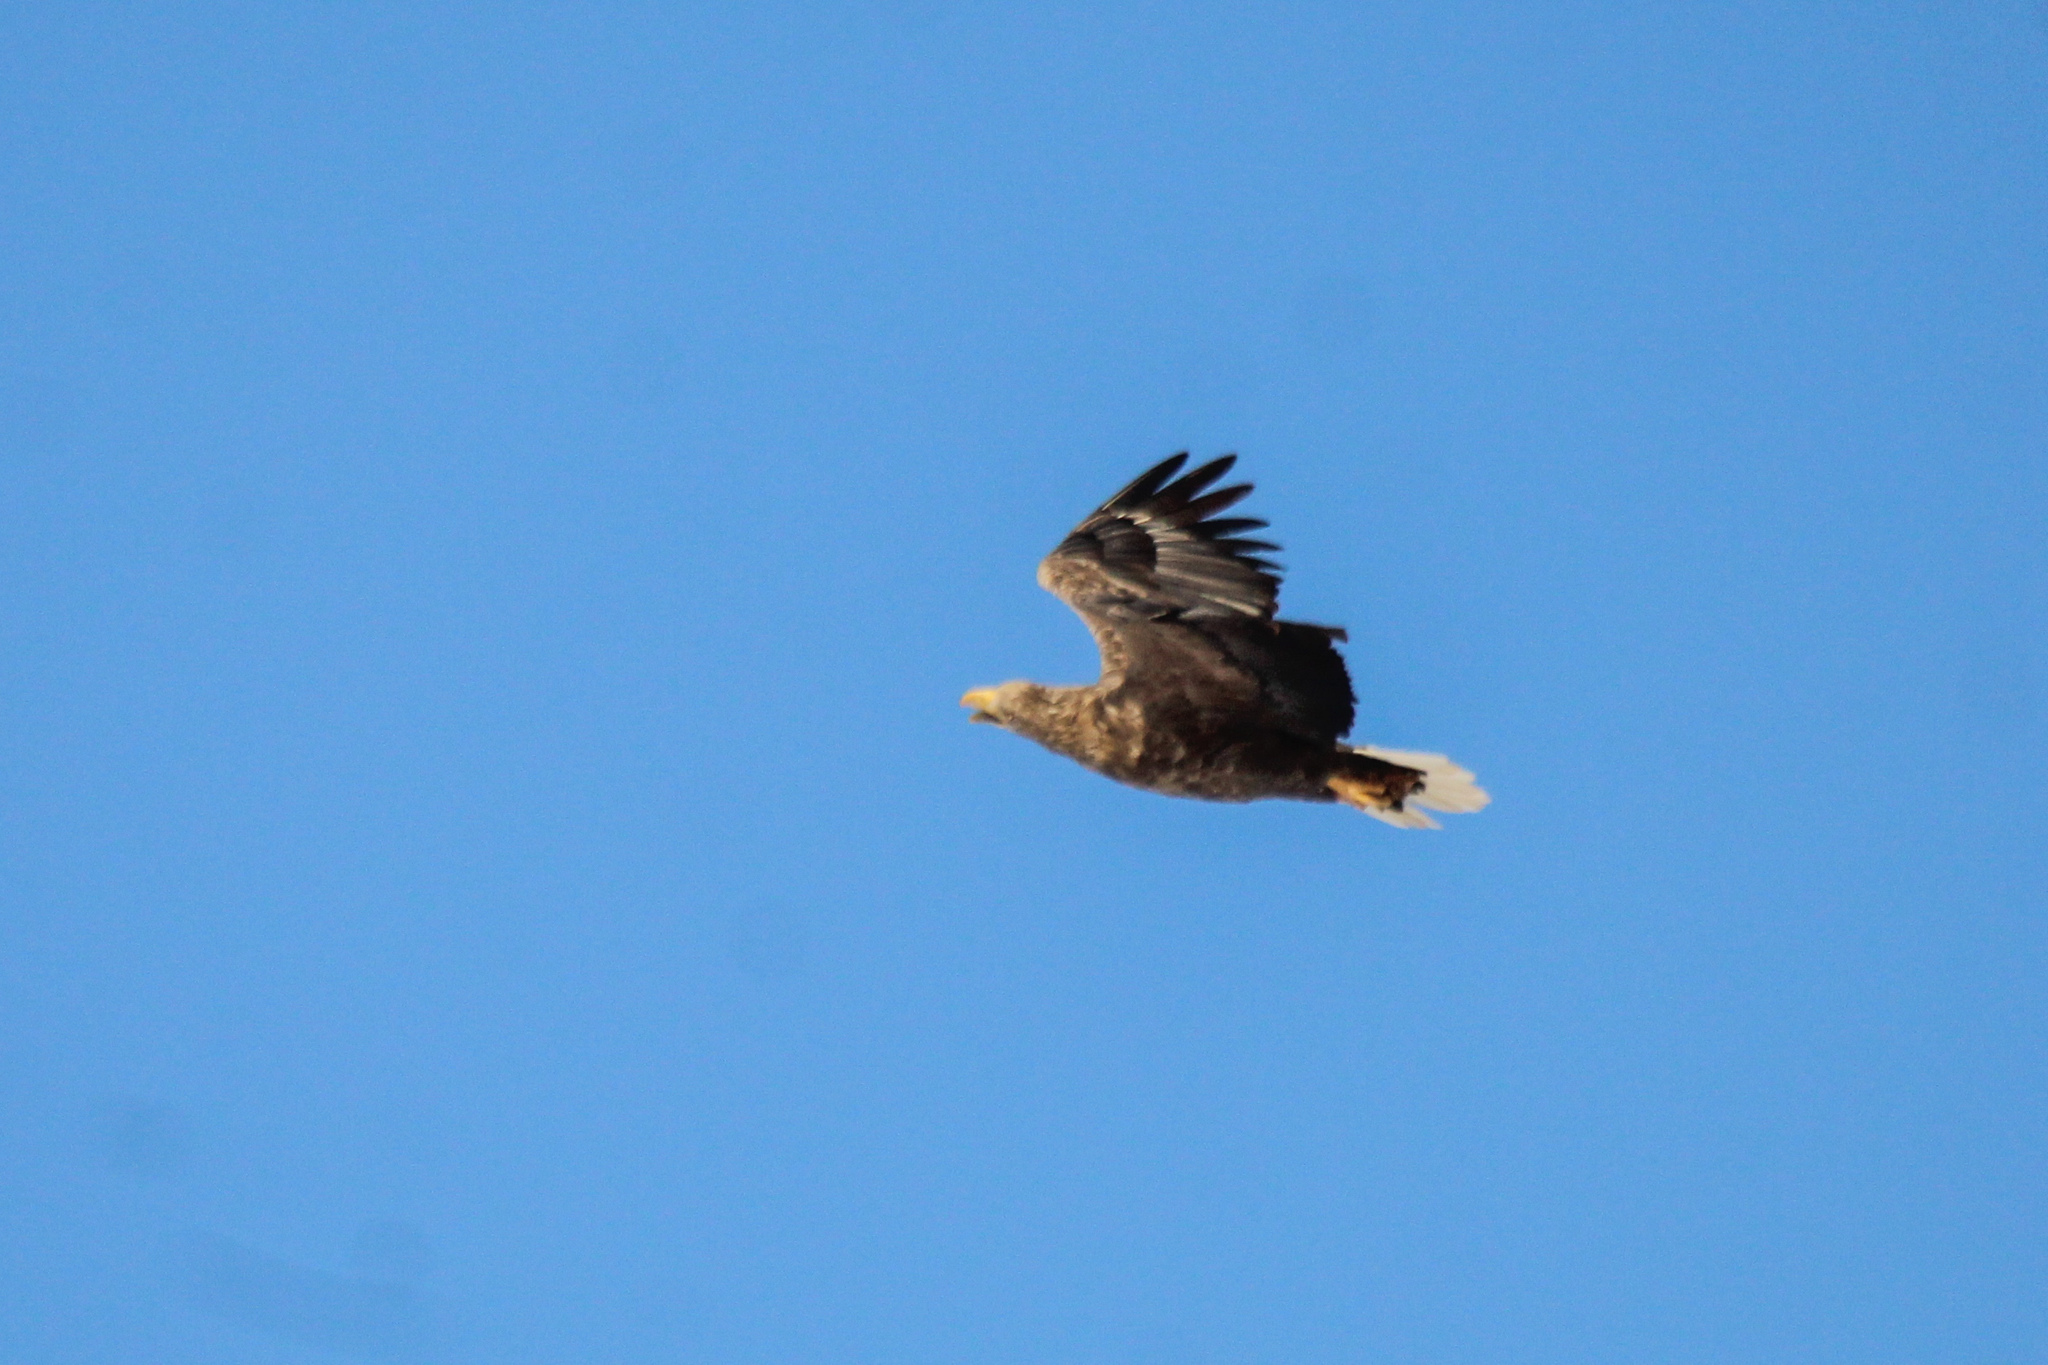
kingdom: Animalia
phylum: Chordata
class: Aves
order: Accipitriformes
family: Accipitridae
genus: Haliaeetus
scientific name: Haliaeetus albicilla
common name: White-tailed eagle
